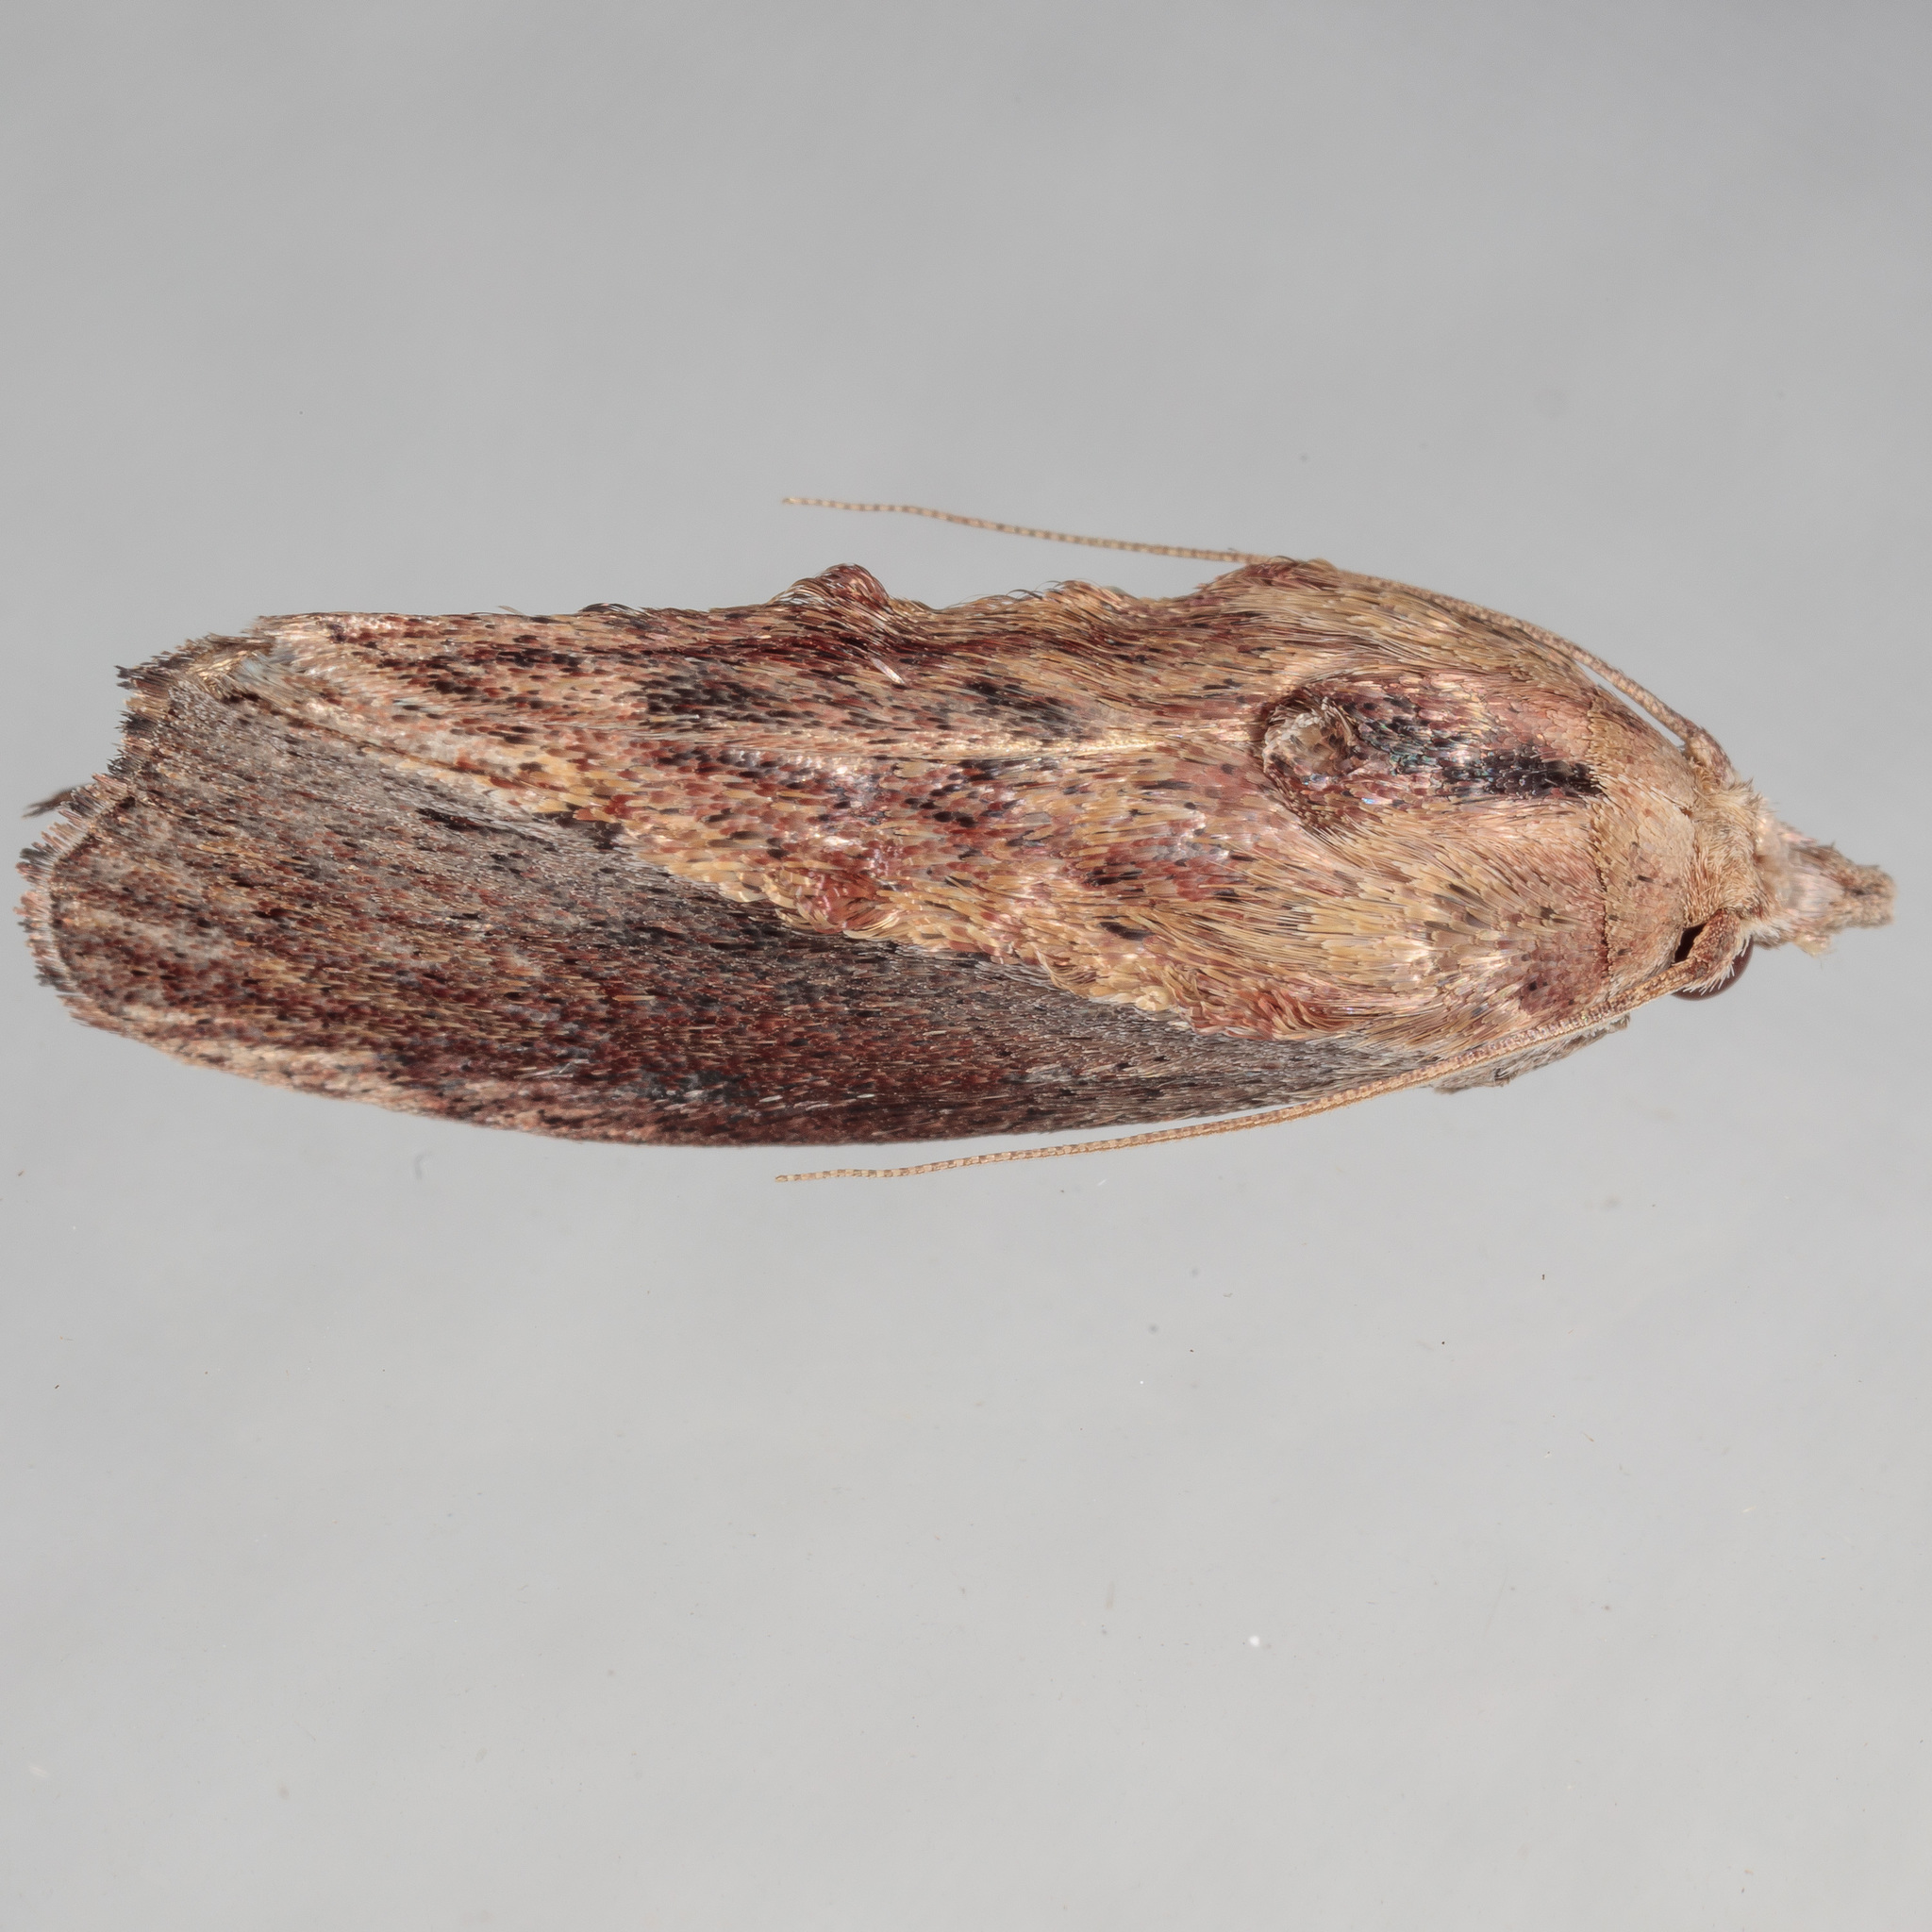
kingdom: Animalia
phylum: Arthropoda
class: Insecta
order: Lepidoptera
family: Pyralidae
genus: Galleria
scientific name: Galleria mellonella
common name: Greater wax moth
